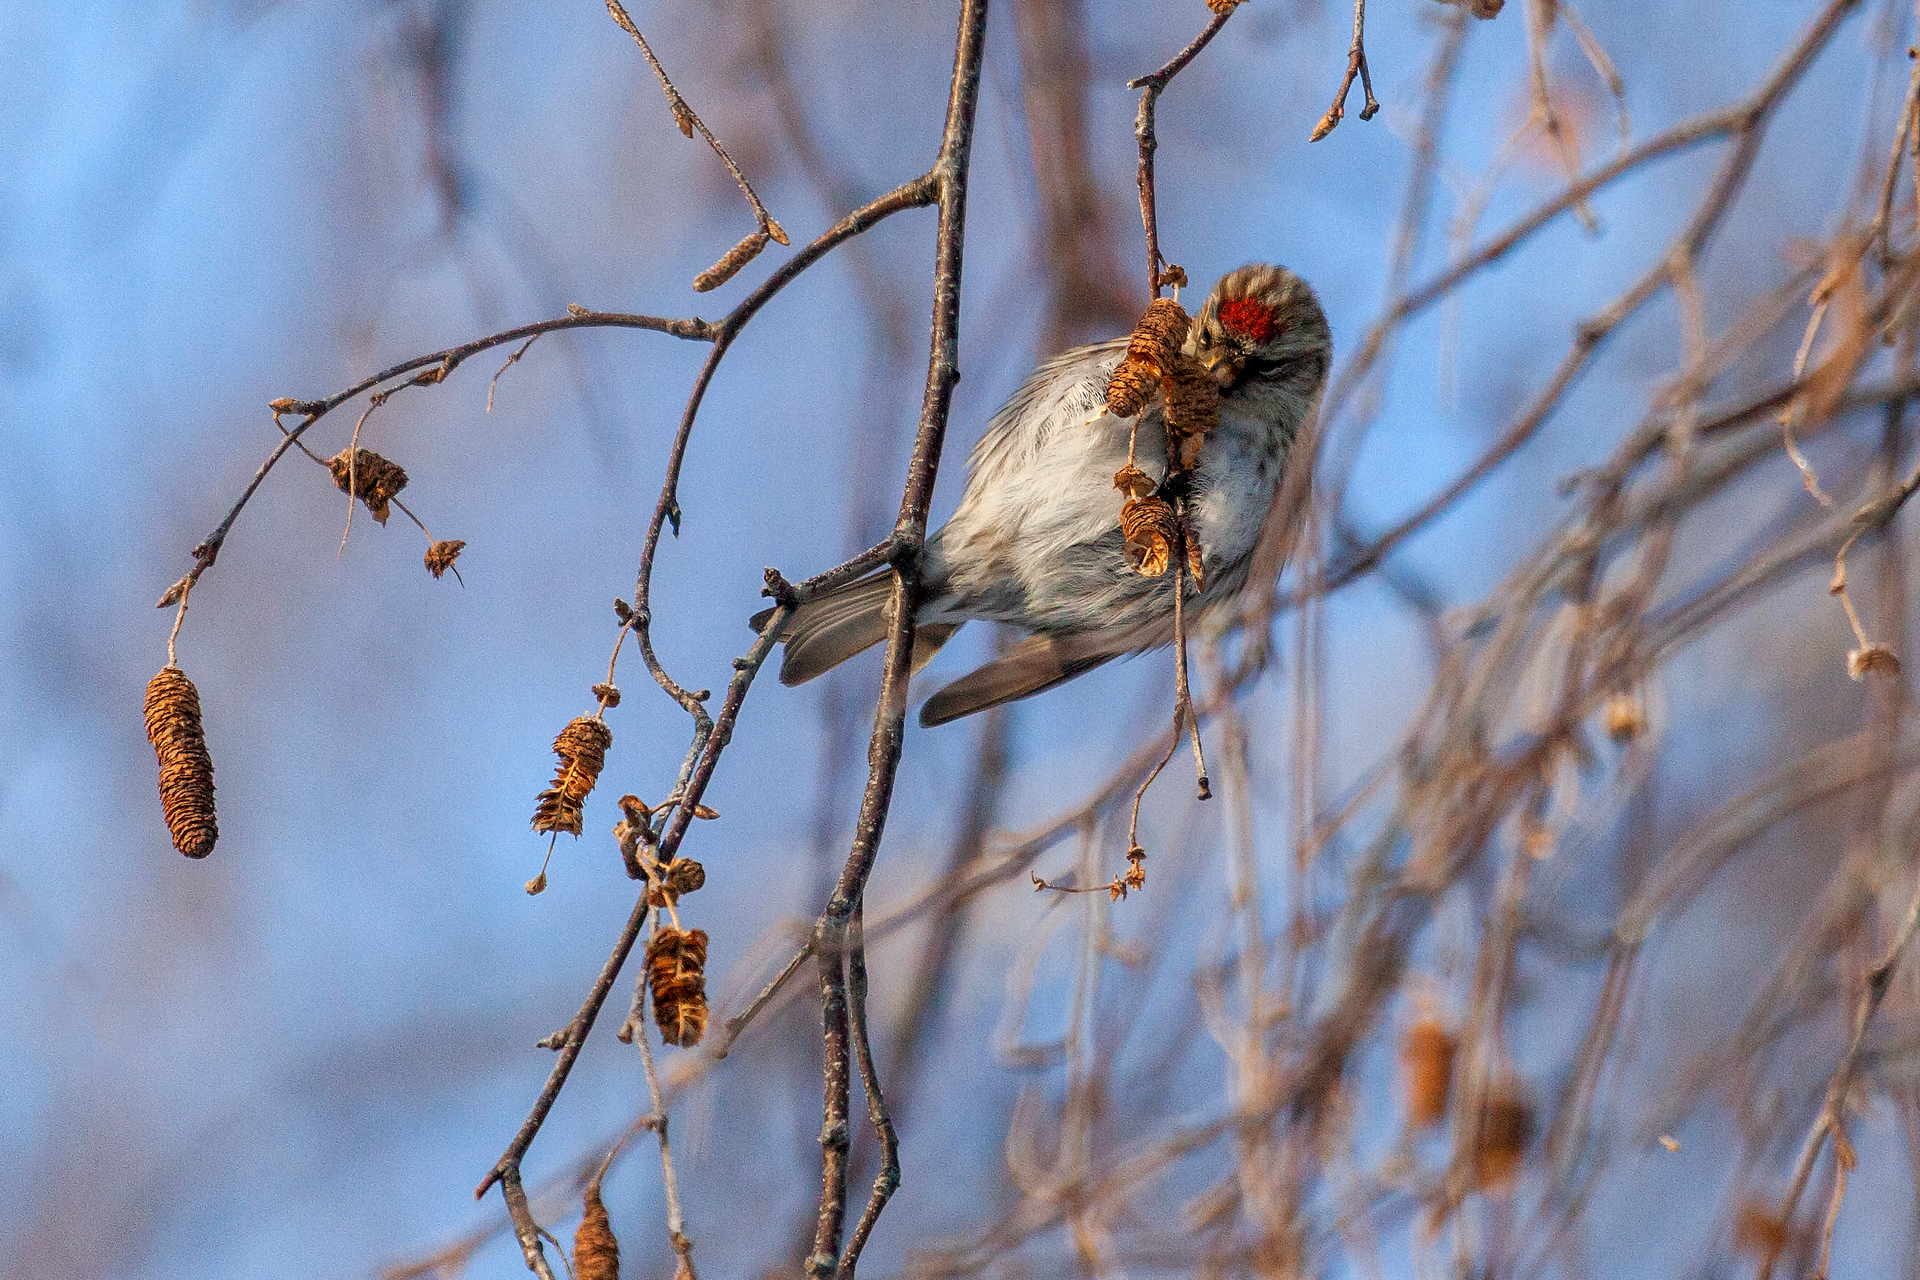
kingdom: Animalia
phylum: Chordata
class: Aves
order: Passeriformes
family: Fringillidae
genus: Acanthis
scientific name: Acanthis flammea
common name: Common redpoll
